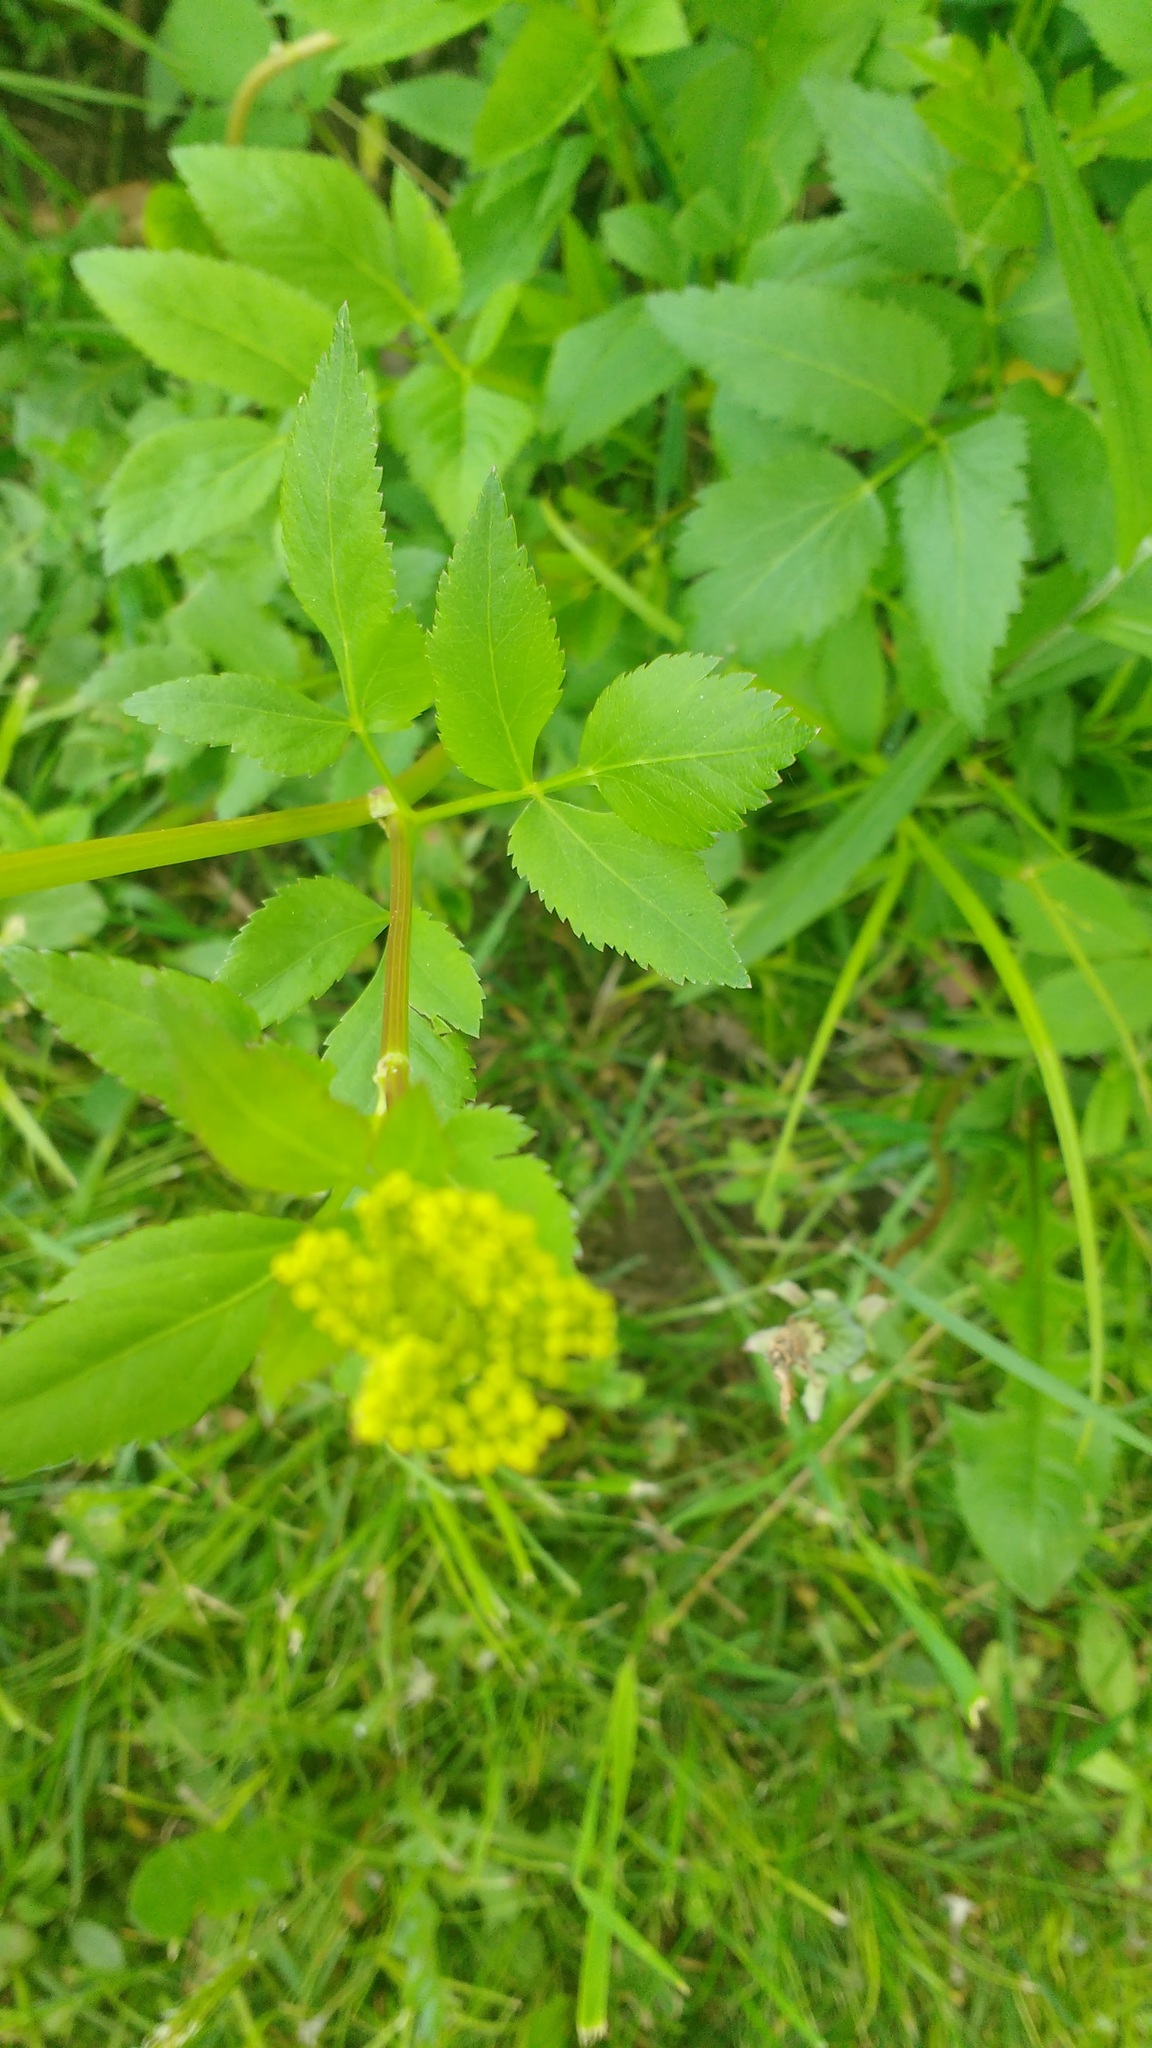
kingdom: Plantae
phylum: Tracheophyta
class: Magnoliopsida
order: Apiales
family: Apiaceae
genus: Zizia
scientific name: Zizia aurea
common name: Golden alexanders
